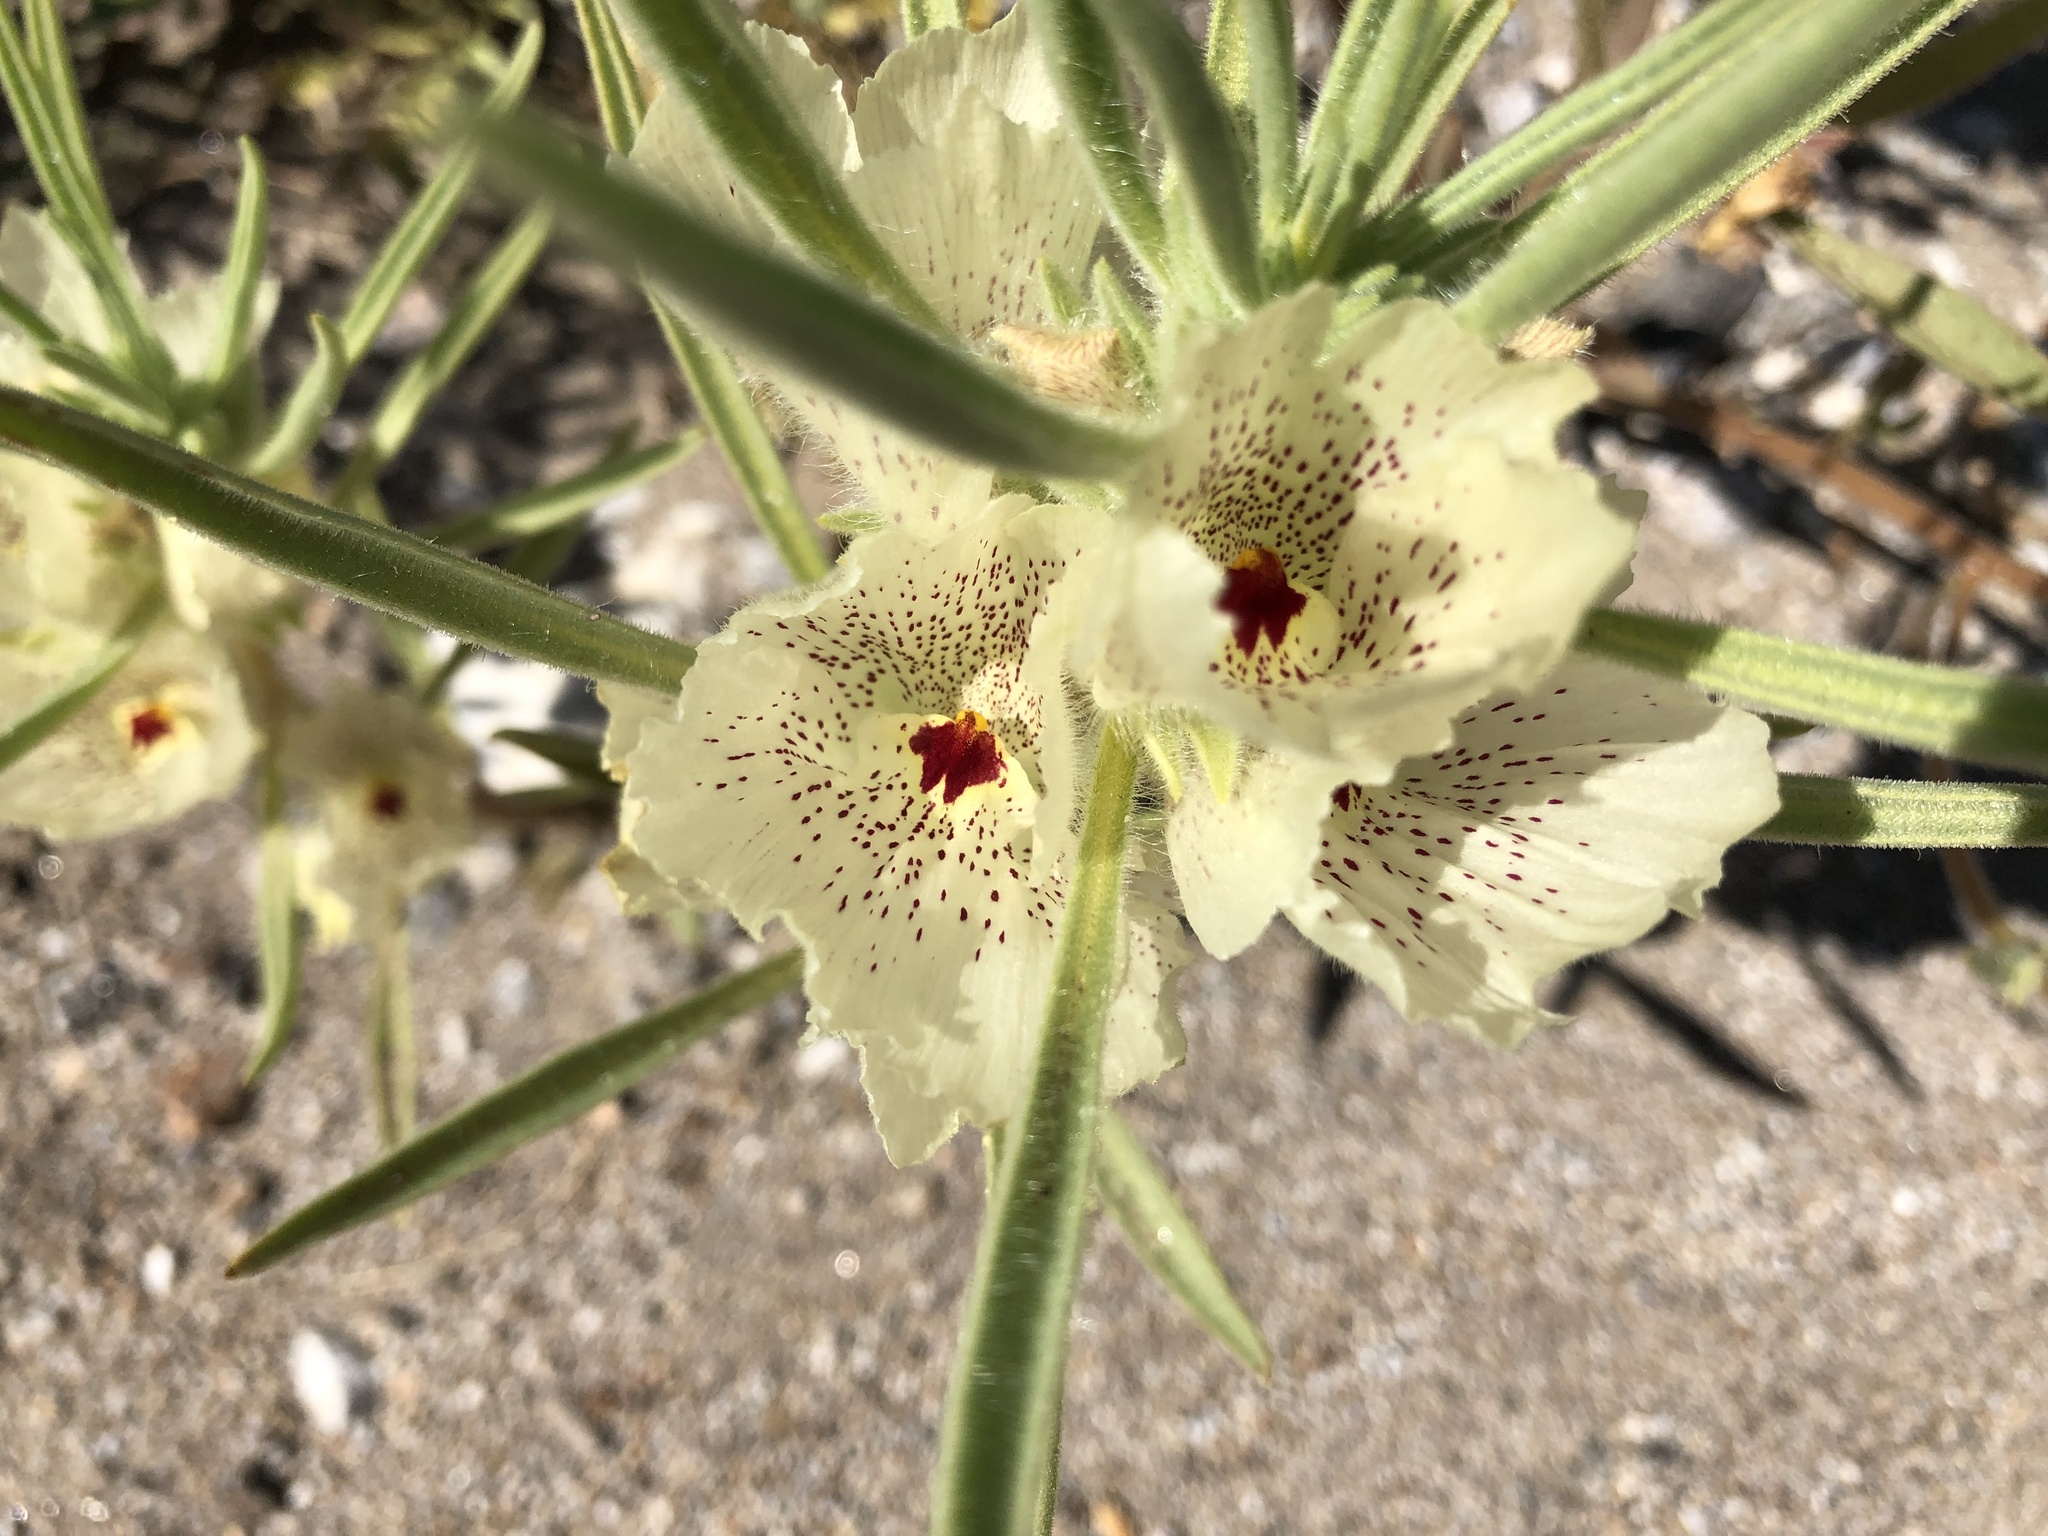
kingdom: Plantae
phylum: Tracheophyta
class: Magnoliopsida
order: Lamiales
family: Plantaginaceae
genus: Mohavea
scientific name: Mohavea confertiflora
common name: Ghost flower
